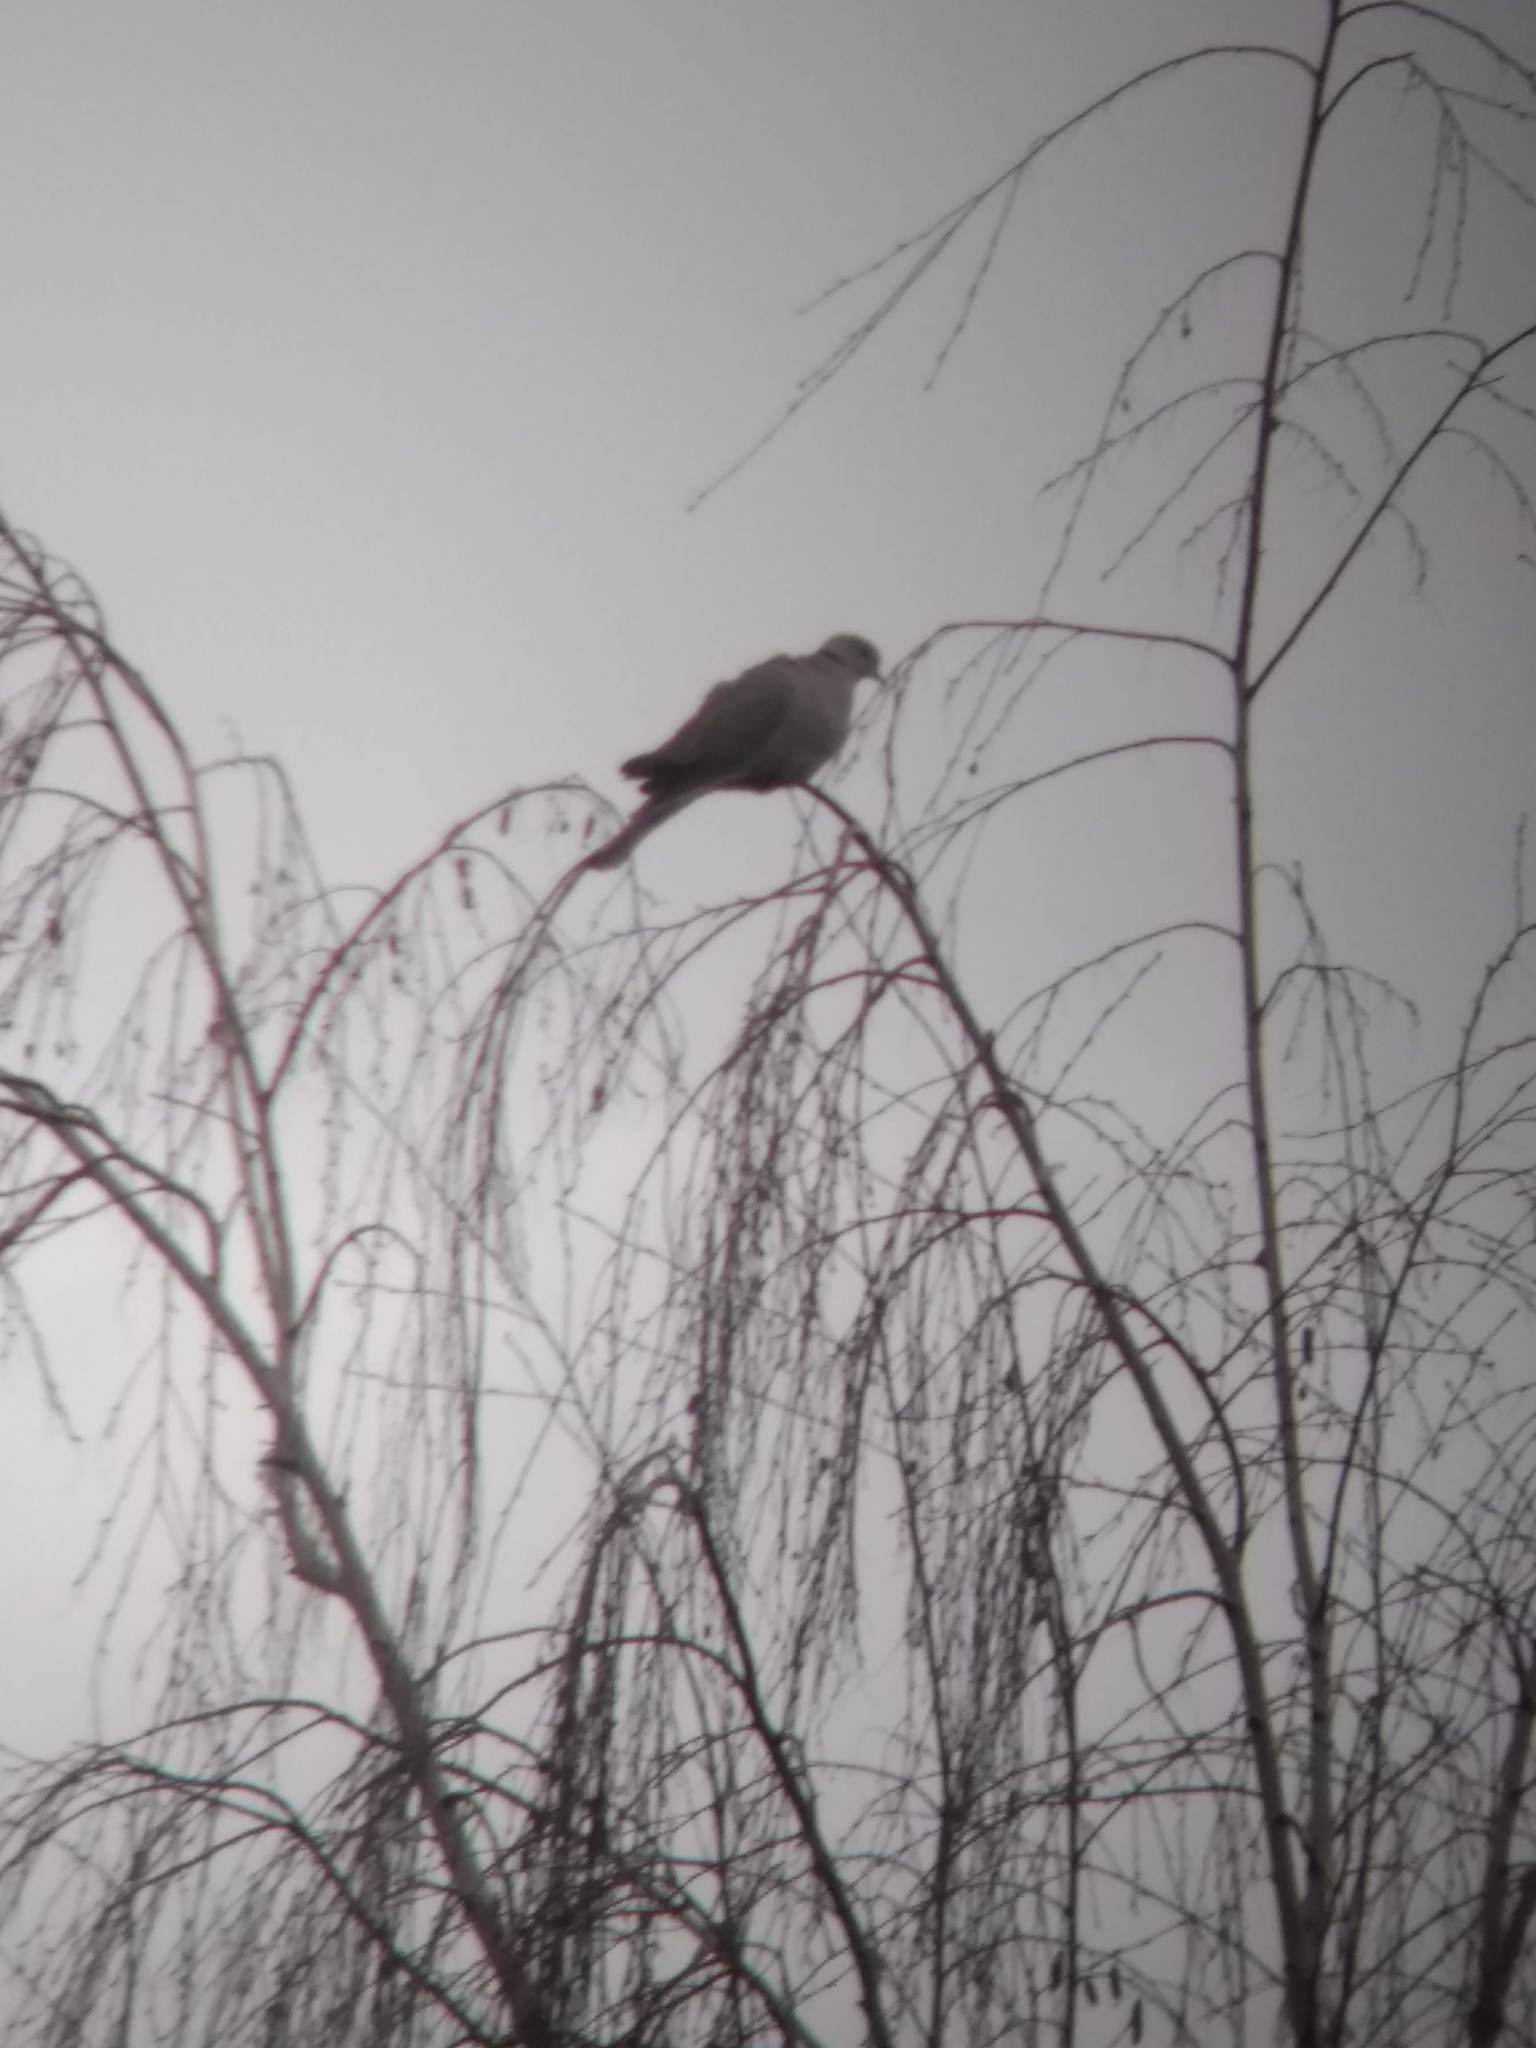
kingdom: Animalia
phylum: Chordata
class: Aves
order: Columbiformes
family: Columbidae
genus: Streptopelia
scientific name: Streptopelia decaocto
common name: Eurasian collared dove
